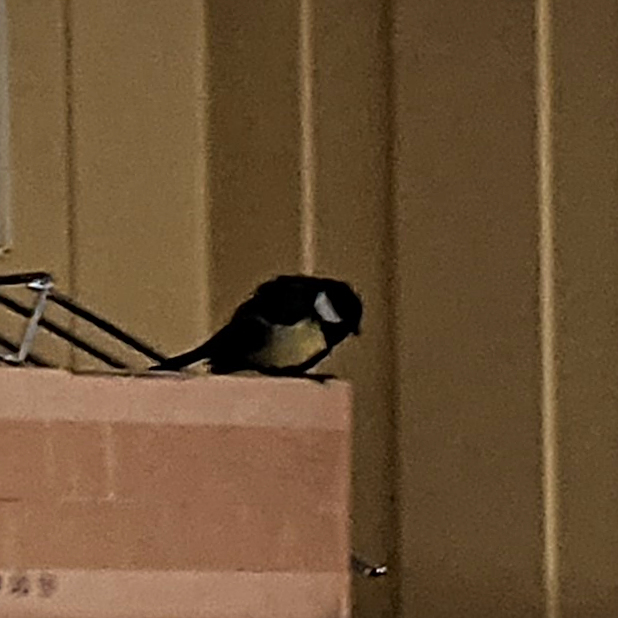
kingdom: Animalia
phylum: Chordata
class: Aves
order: Passeriformes
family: Paridae
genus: Parus
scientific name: Parus major
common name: Great tit
